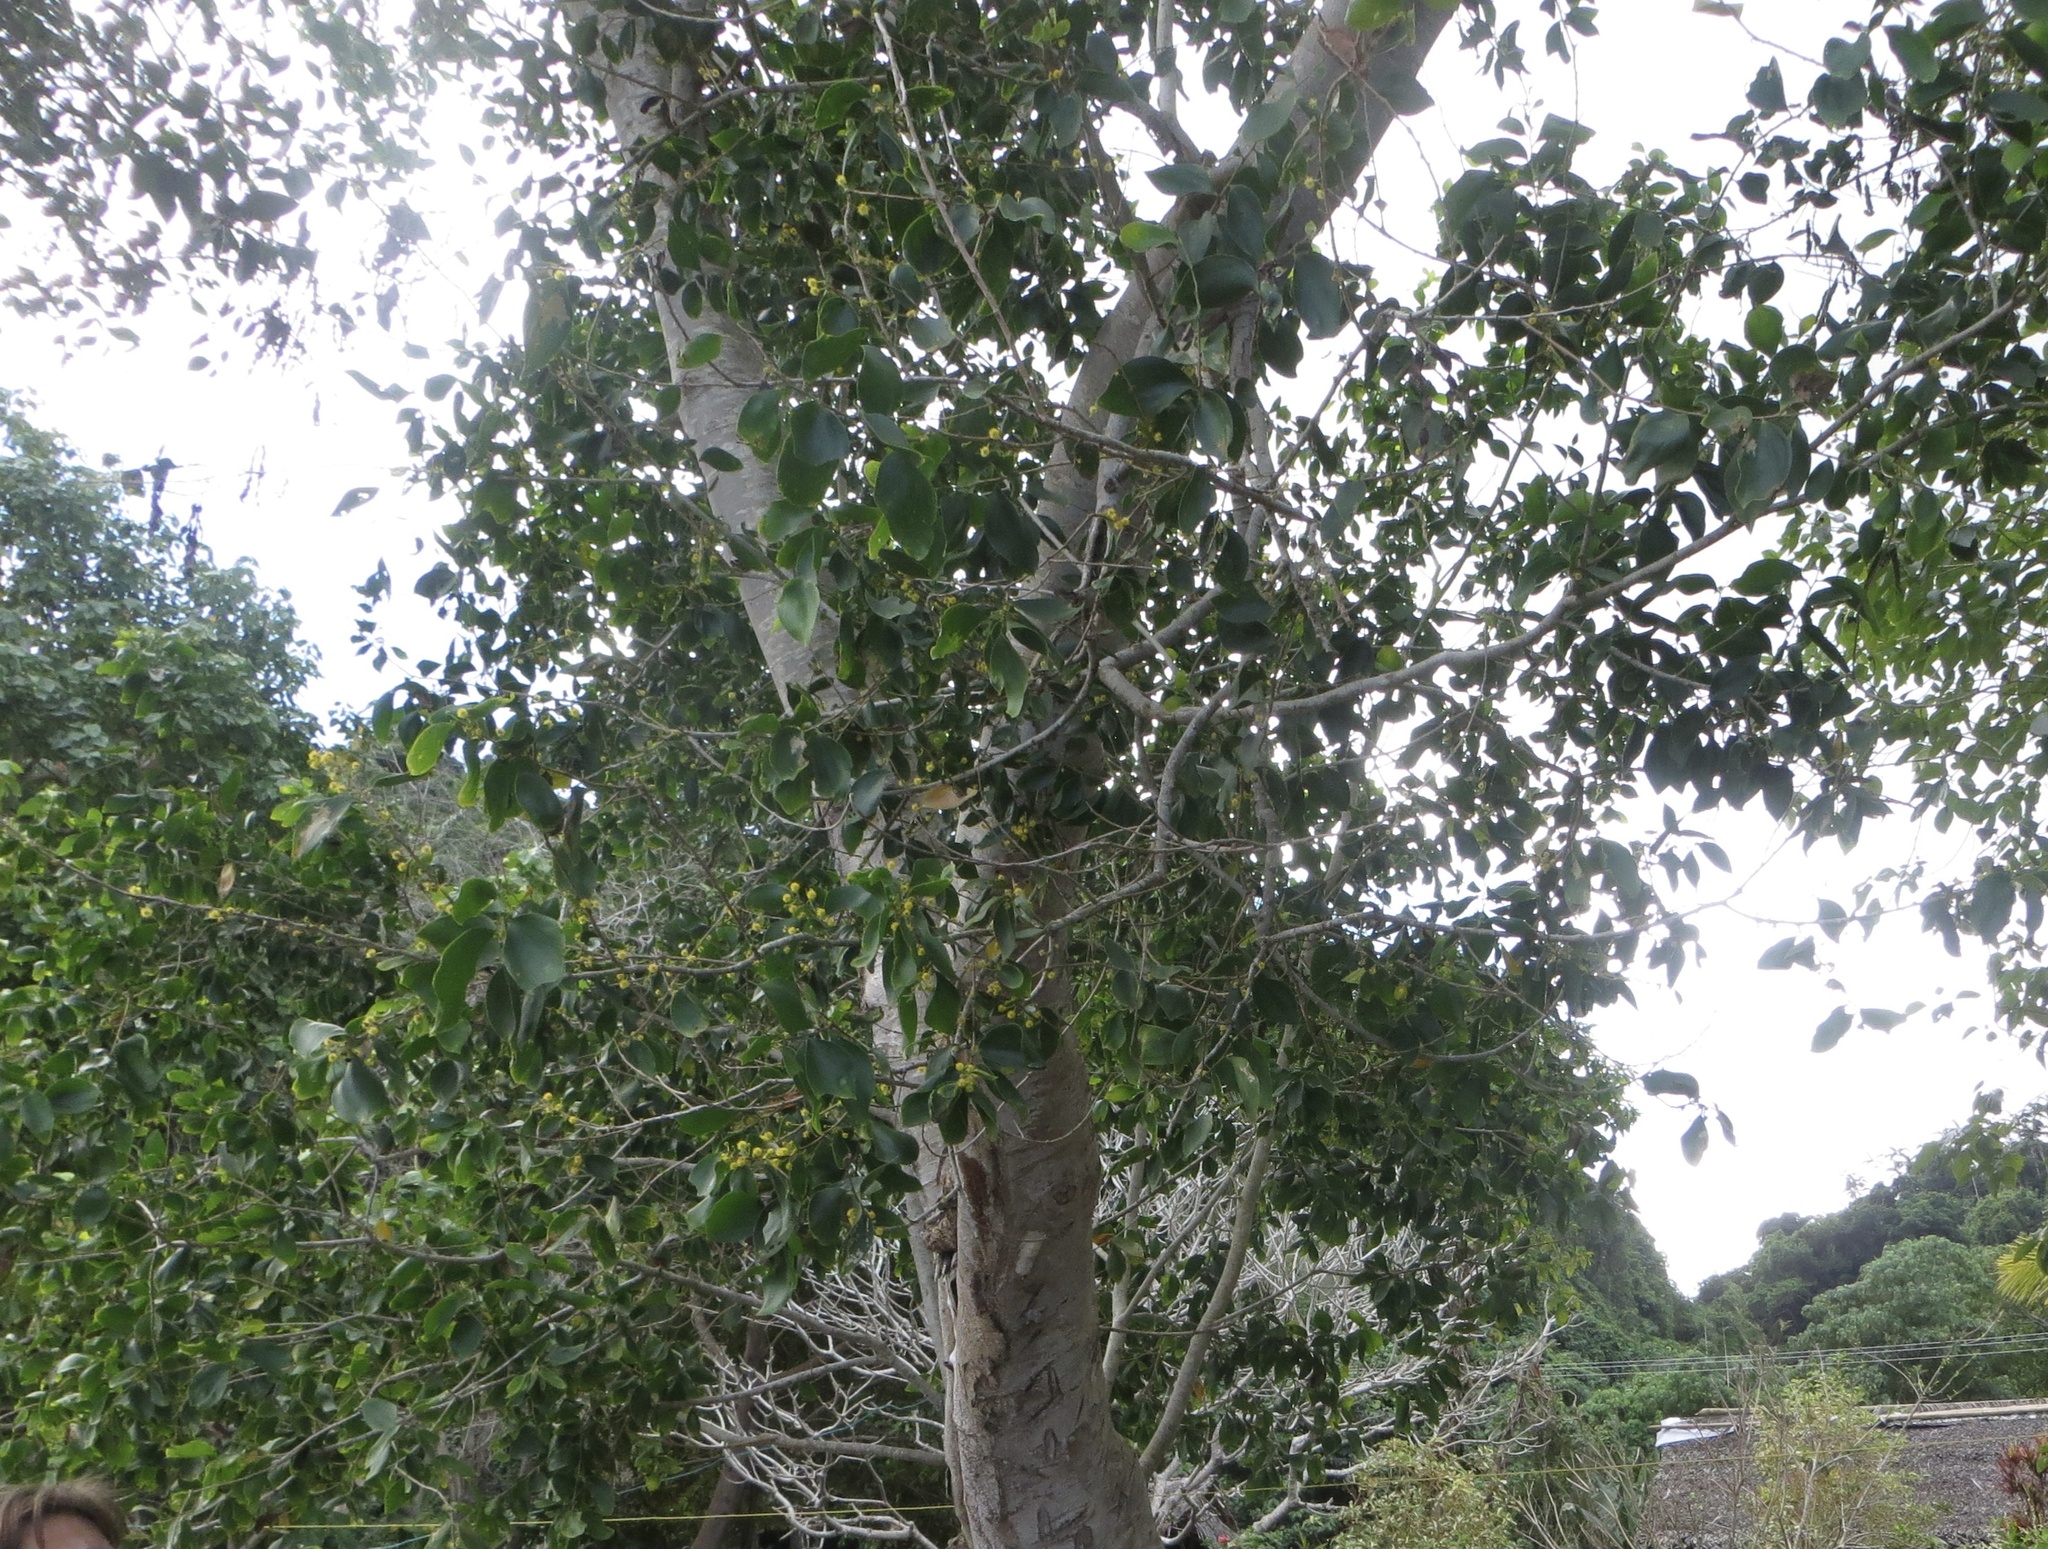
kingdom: Plantae
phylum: Tracheophyta
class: Magnoliopsida
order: Fabales
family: Fabaceae
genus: Acacia
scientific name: Acacia simplex
